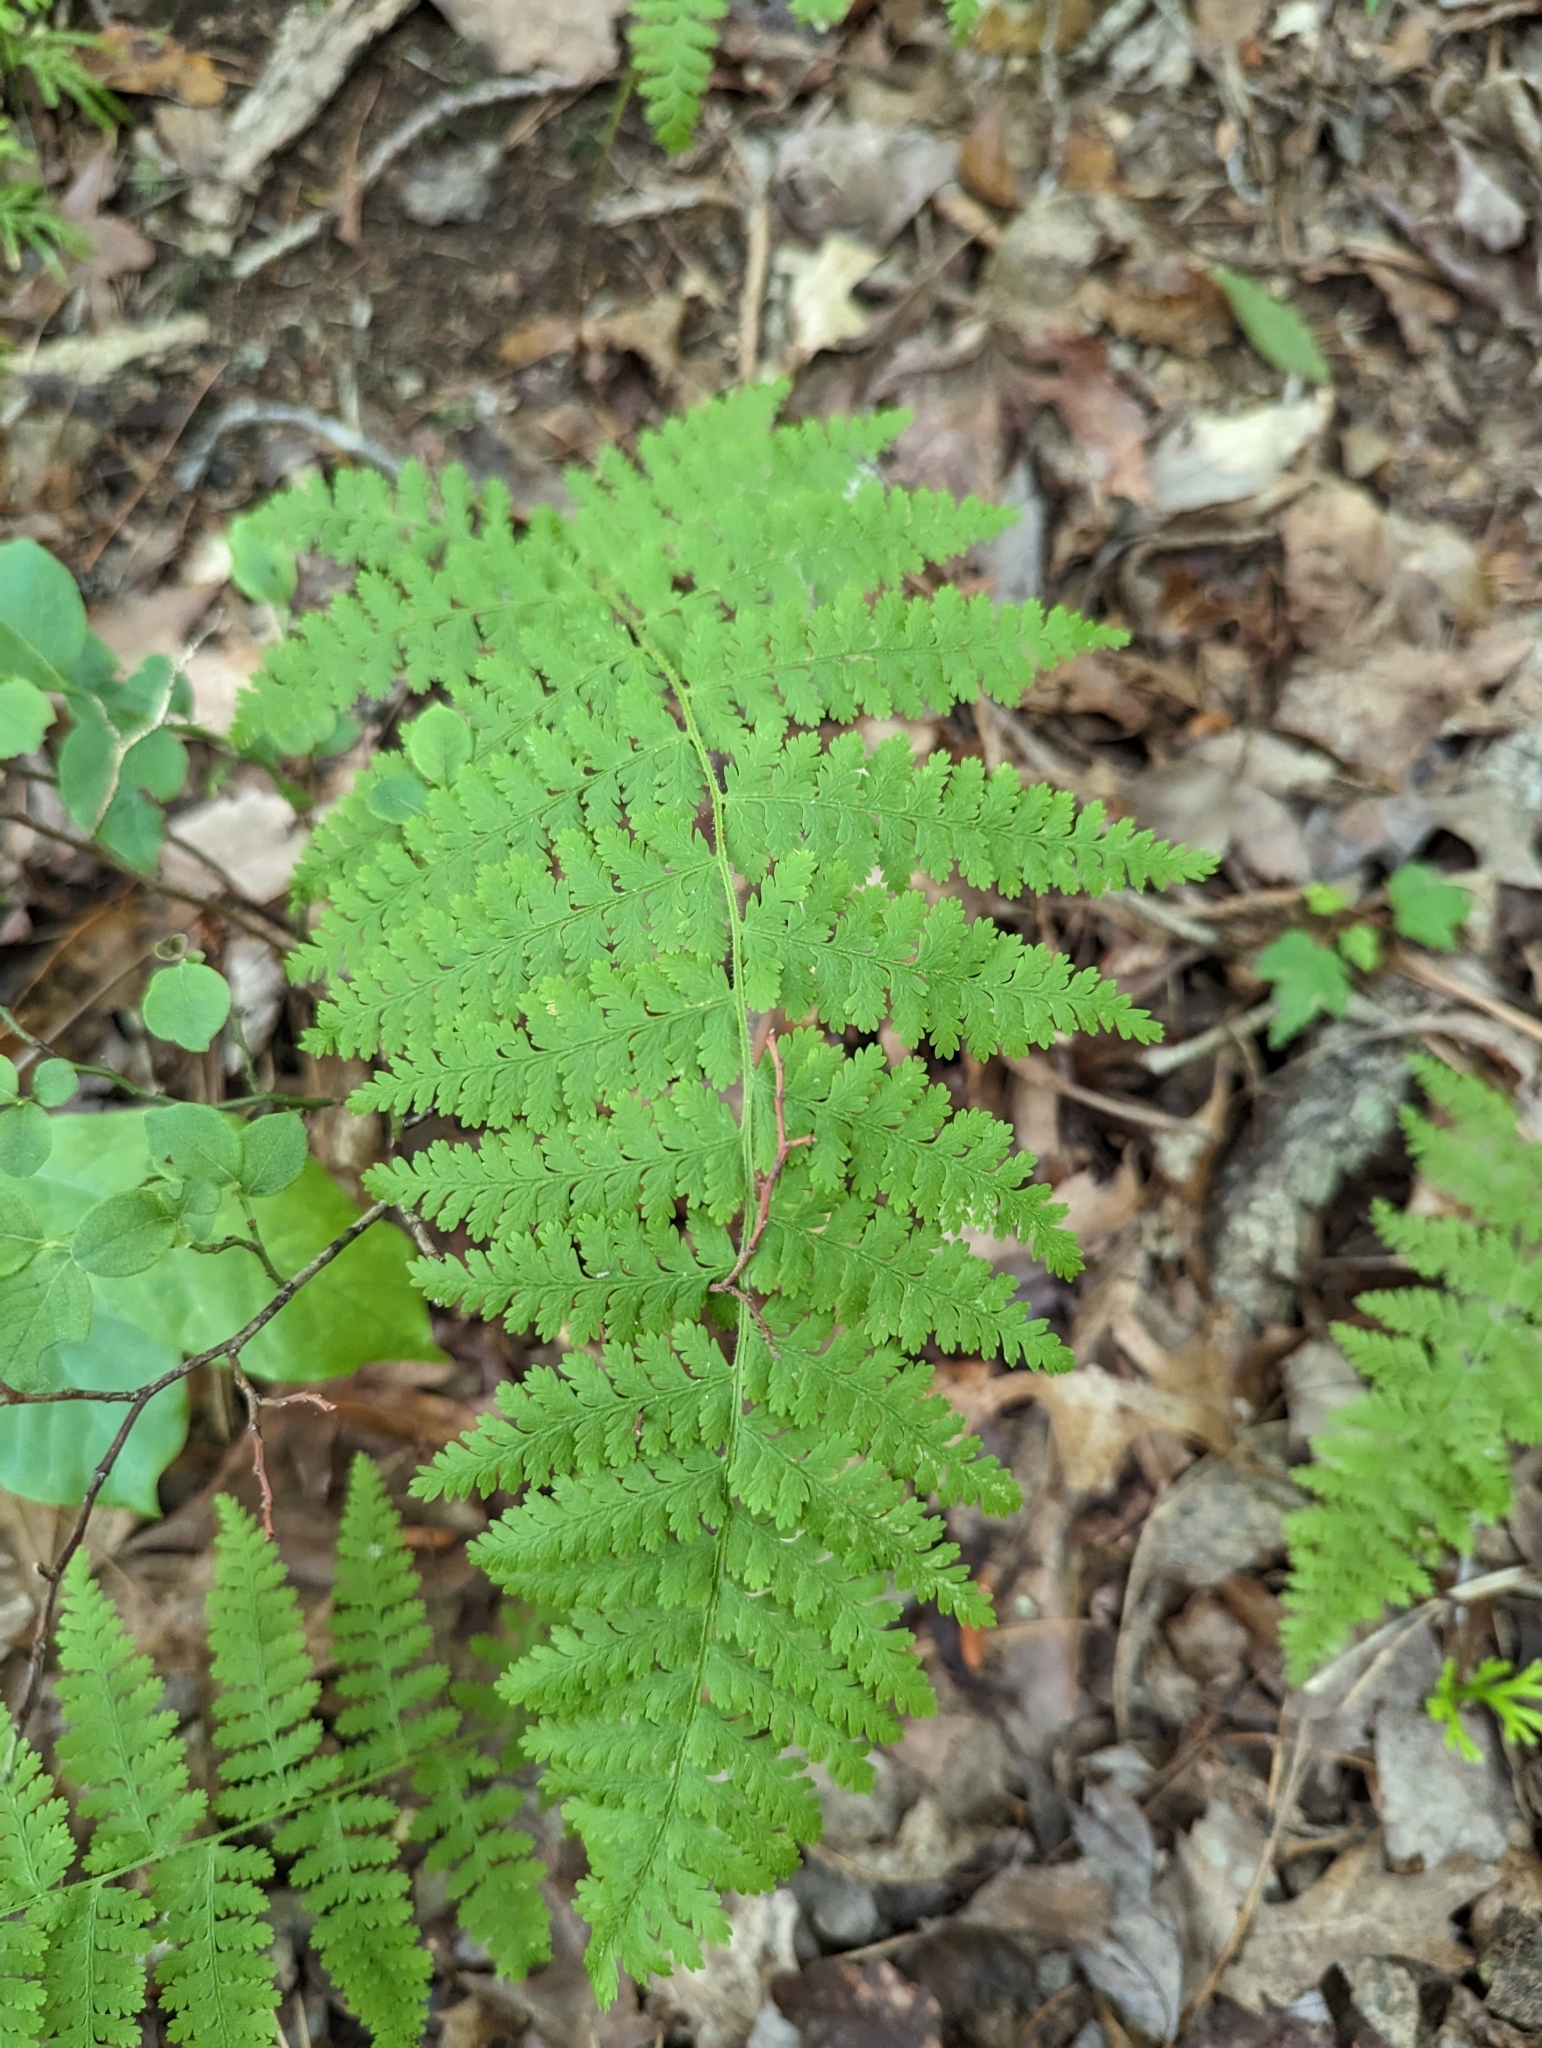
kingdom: Plantae
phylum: Tracheophyta
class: Polypodiopsida
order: Polypodiales
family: Dennstaedtiaceae
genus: Sitobolium
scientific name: Sitobolium punctilobum
